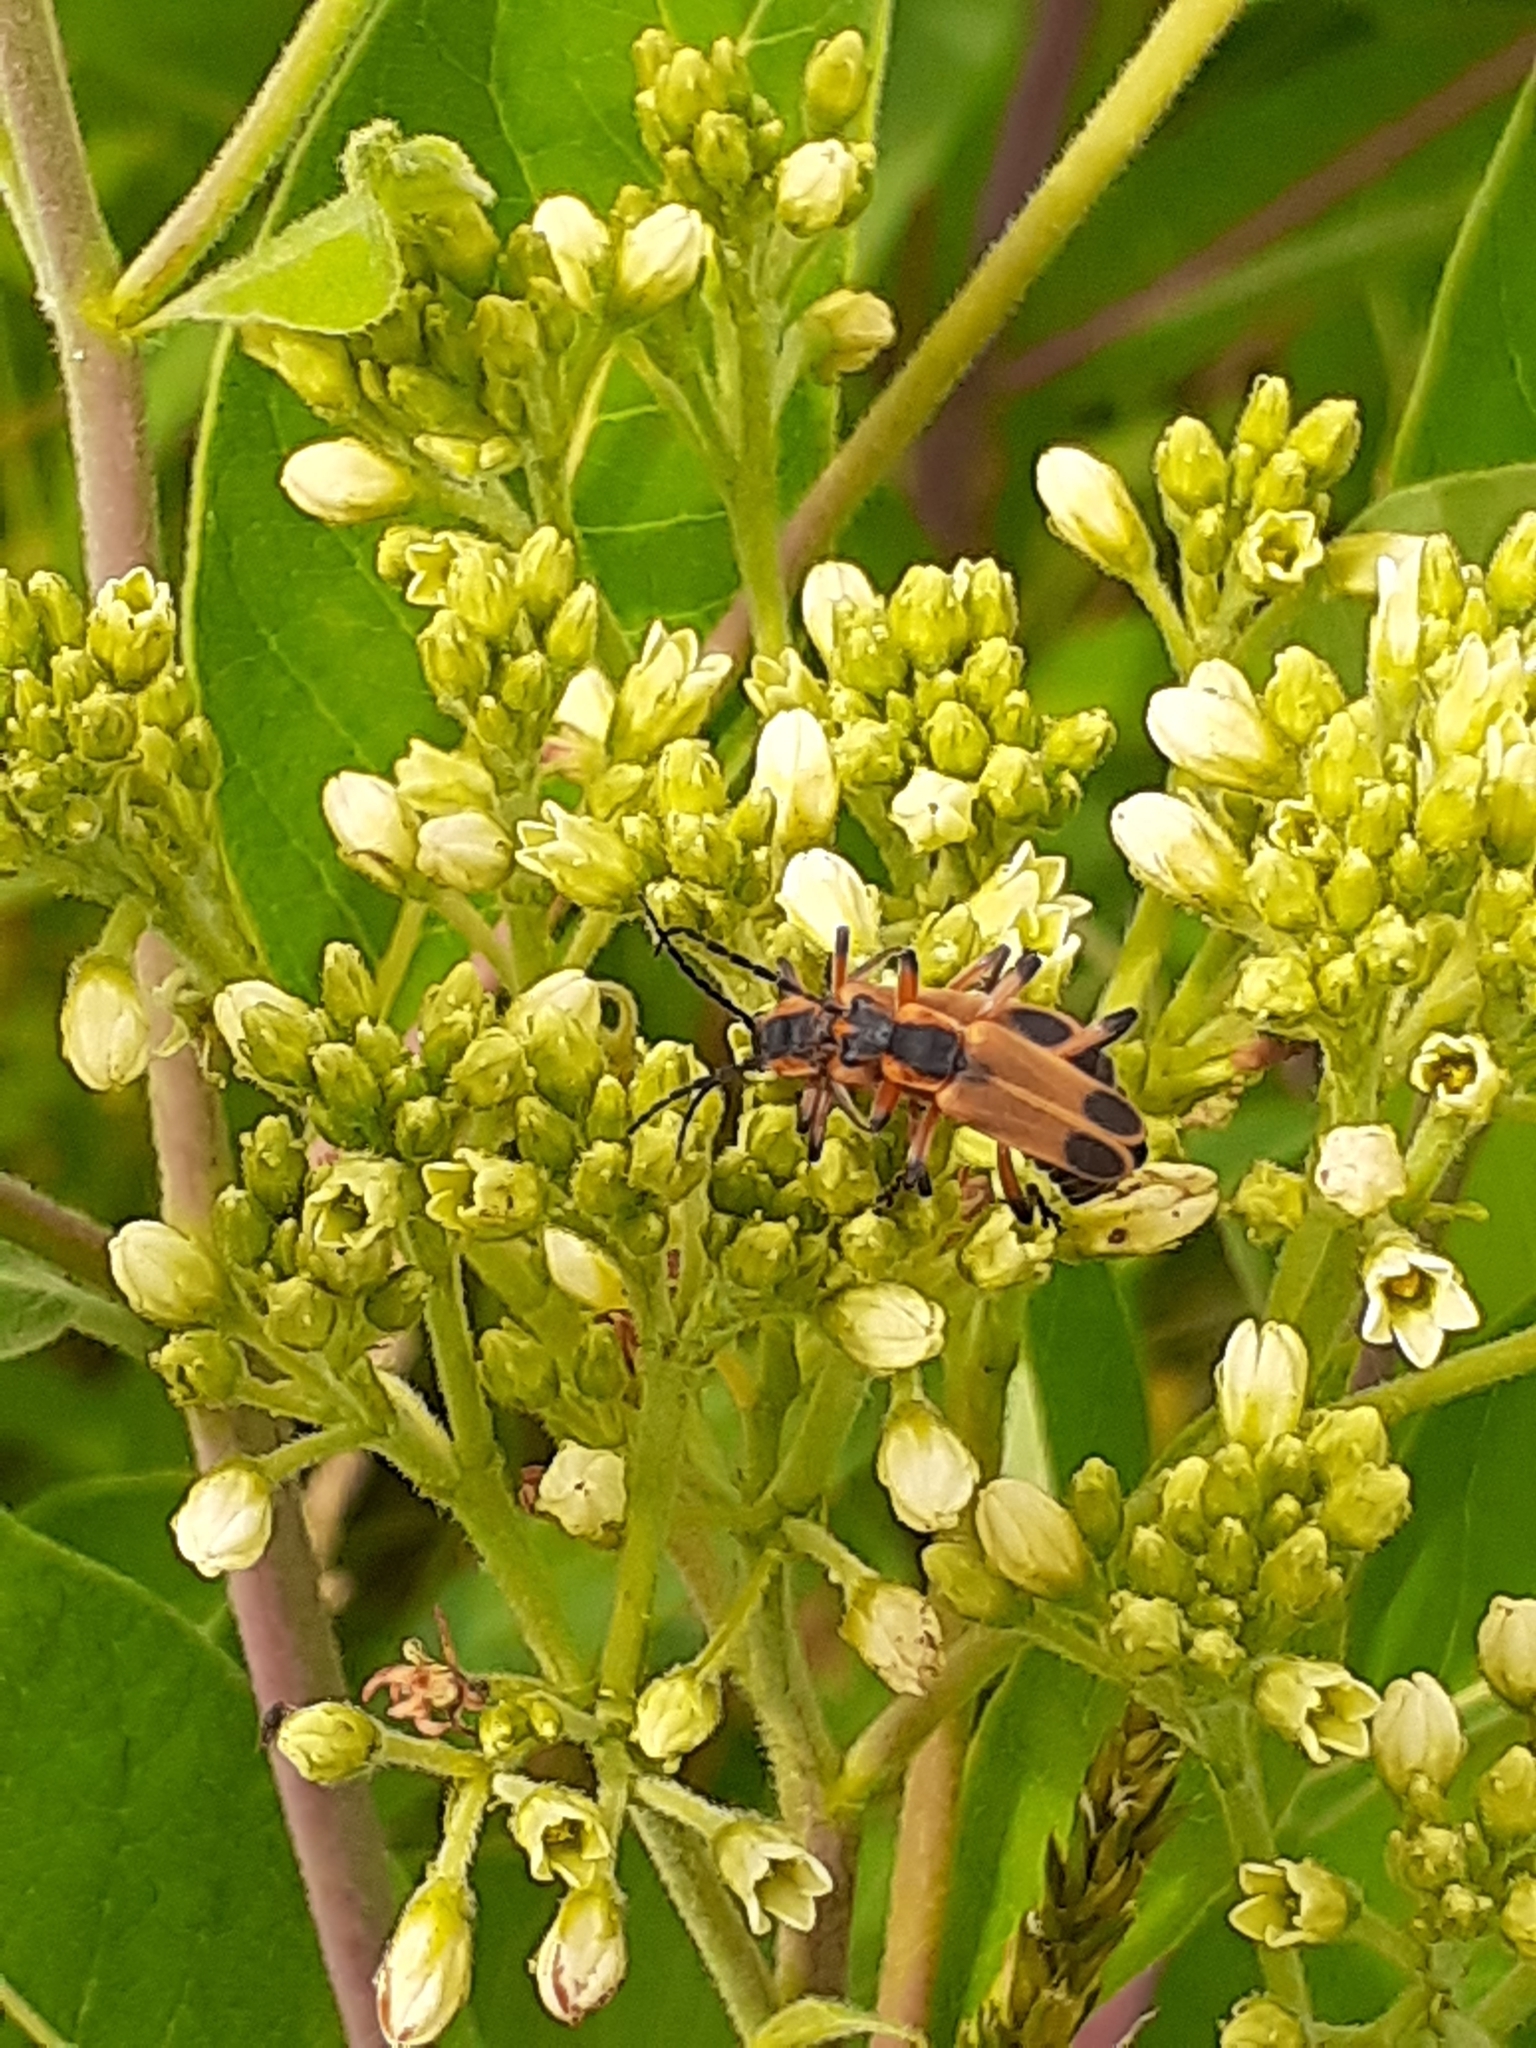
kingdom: Animalia
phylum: Arthropoda
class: Insecta
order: Coleoptera
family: Cantharidae
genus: Chauliognathus
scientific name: Chauliognathus marginatus
